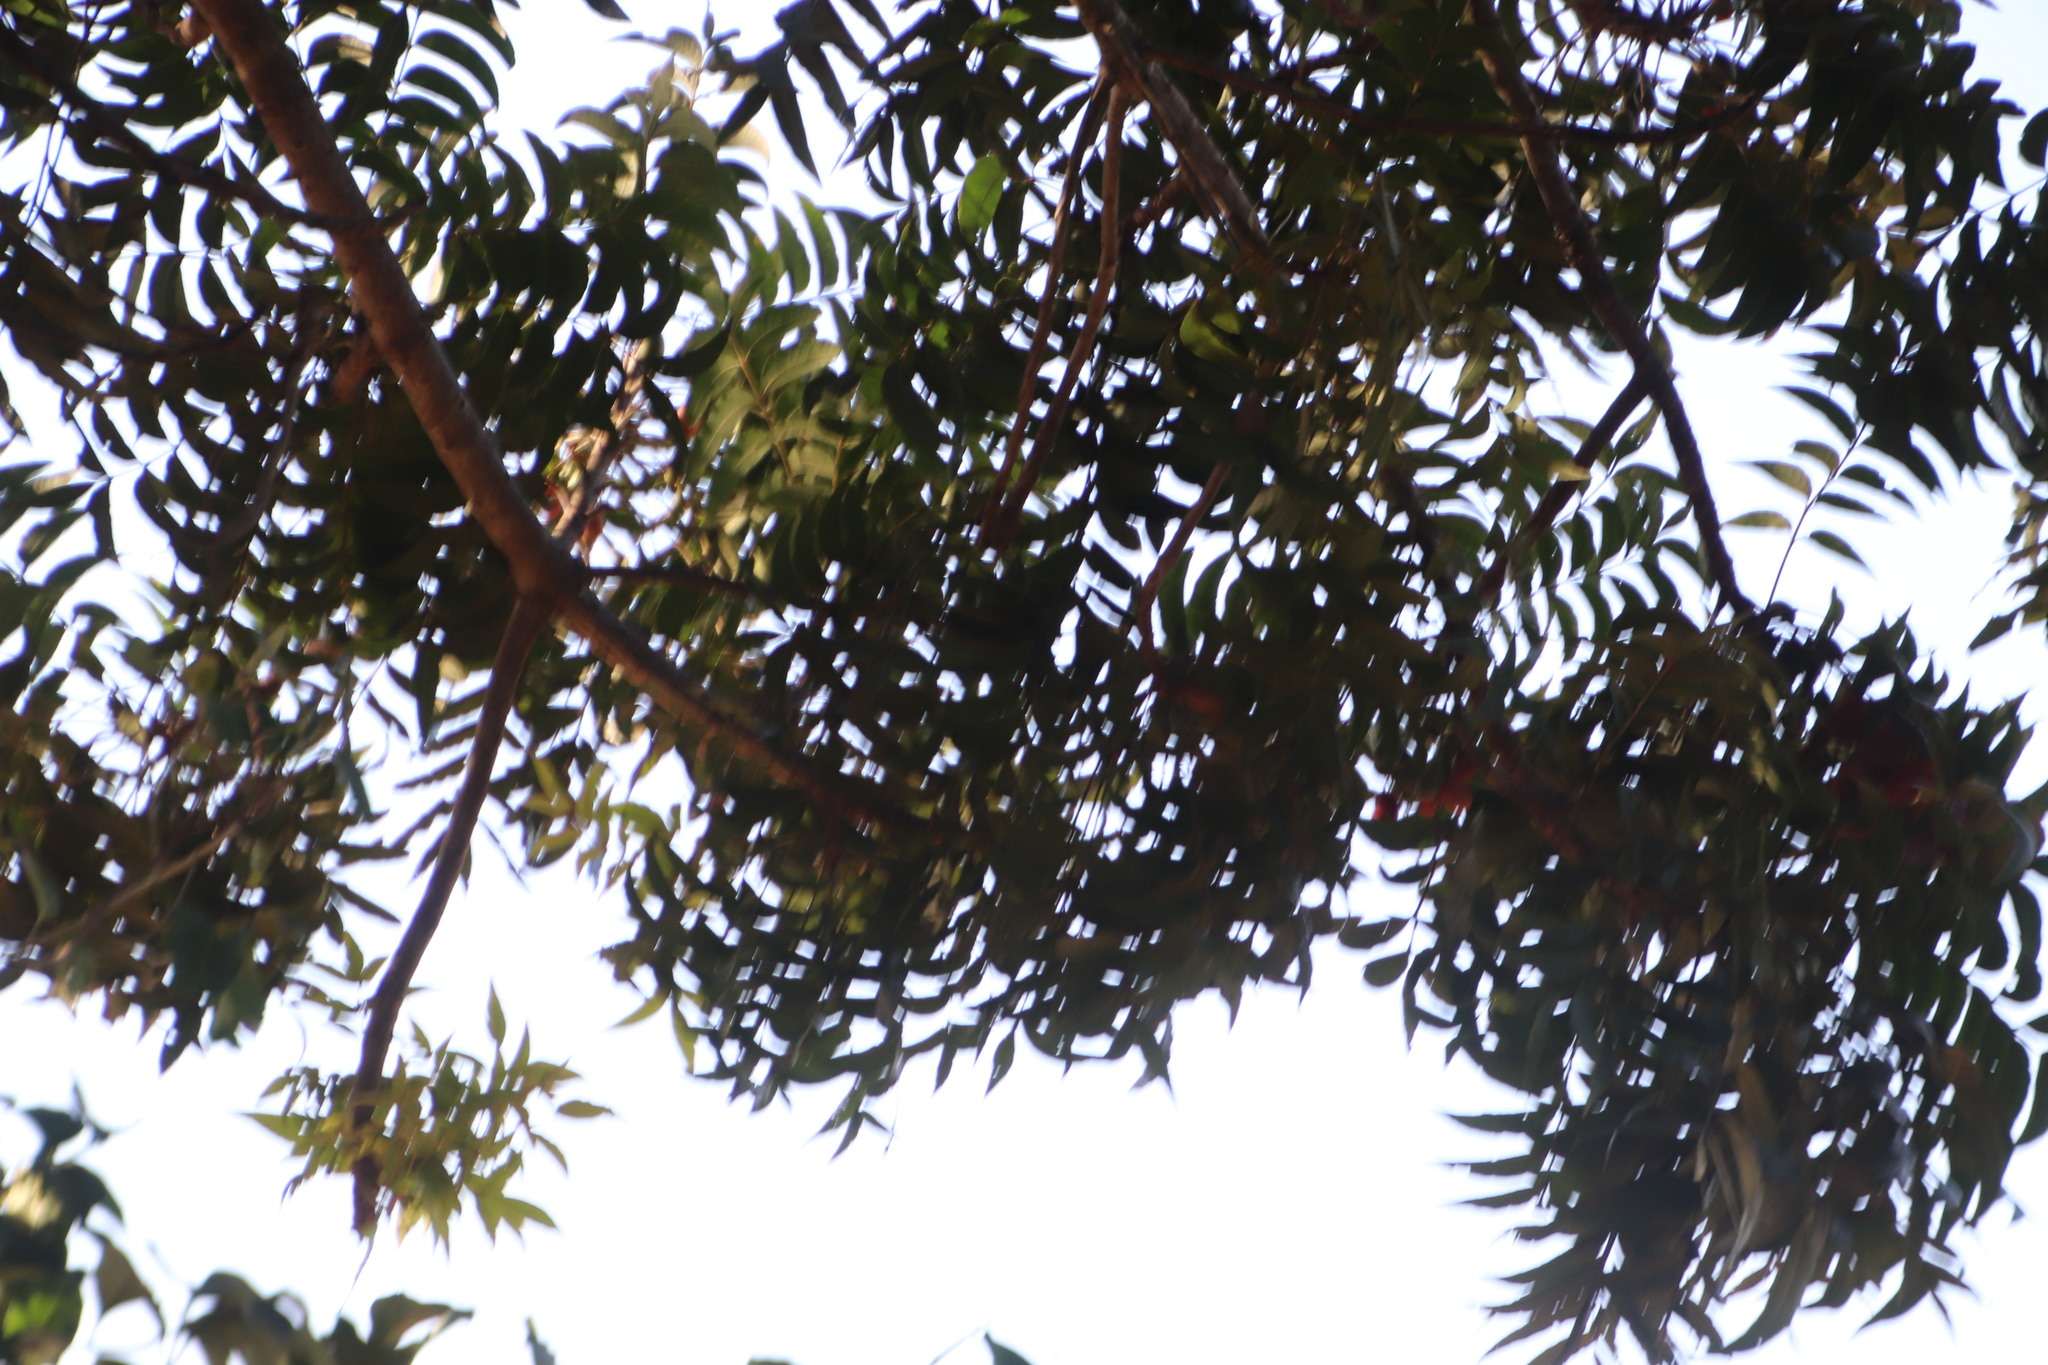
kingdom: Plantae
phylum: Tracheophyta
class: Magnoliopsida
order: Sapindales
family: Anacardiaceae
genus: Harpephyllum
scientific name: Harpephyllum caffrum
